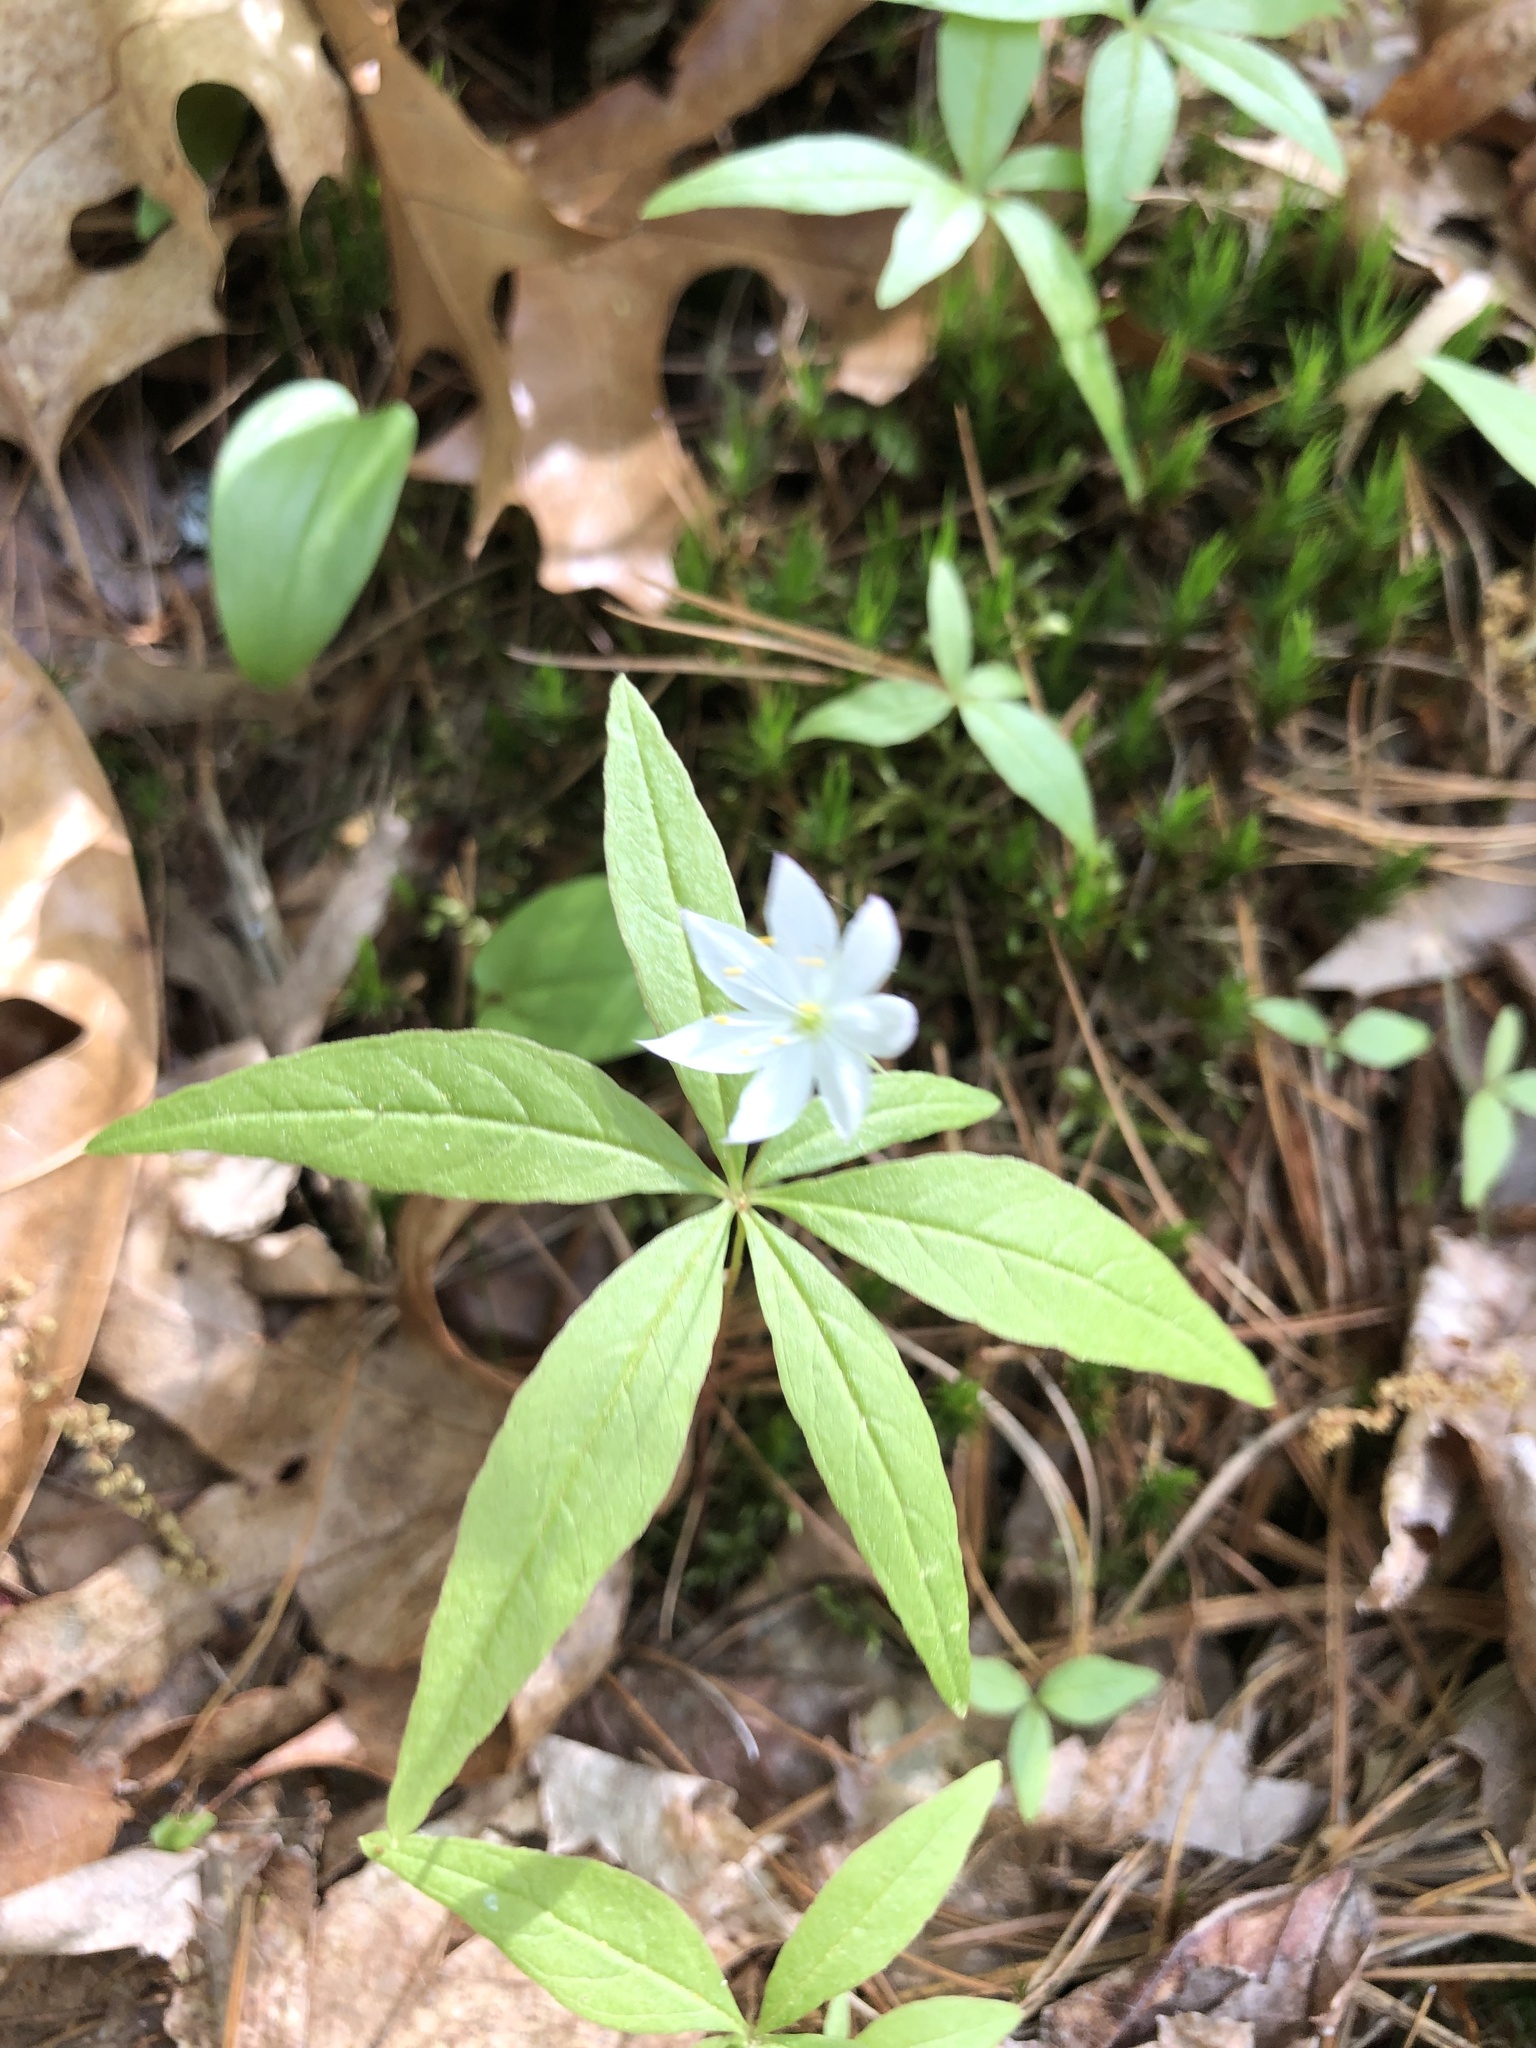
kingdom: Plantae
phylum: Tracheophyta
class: Magnoliopsida
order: Ericales
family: Primulaceae
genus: Lysimachia
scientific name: Lysimachia borealis
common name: American starflower
